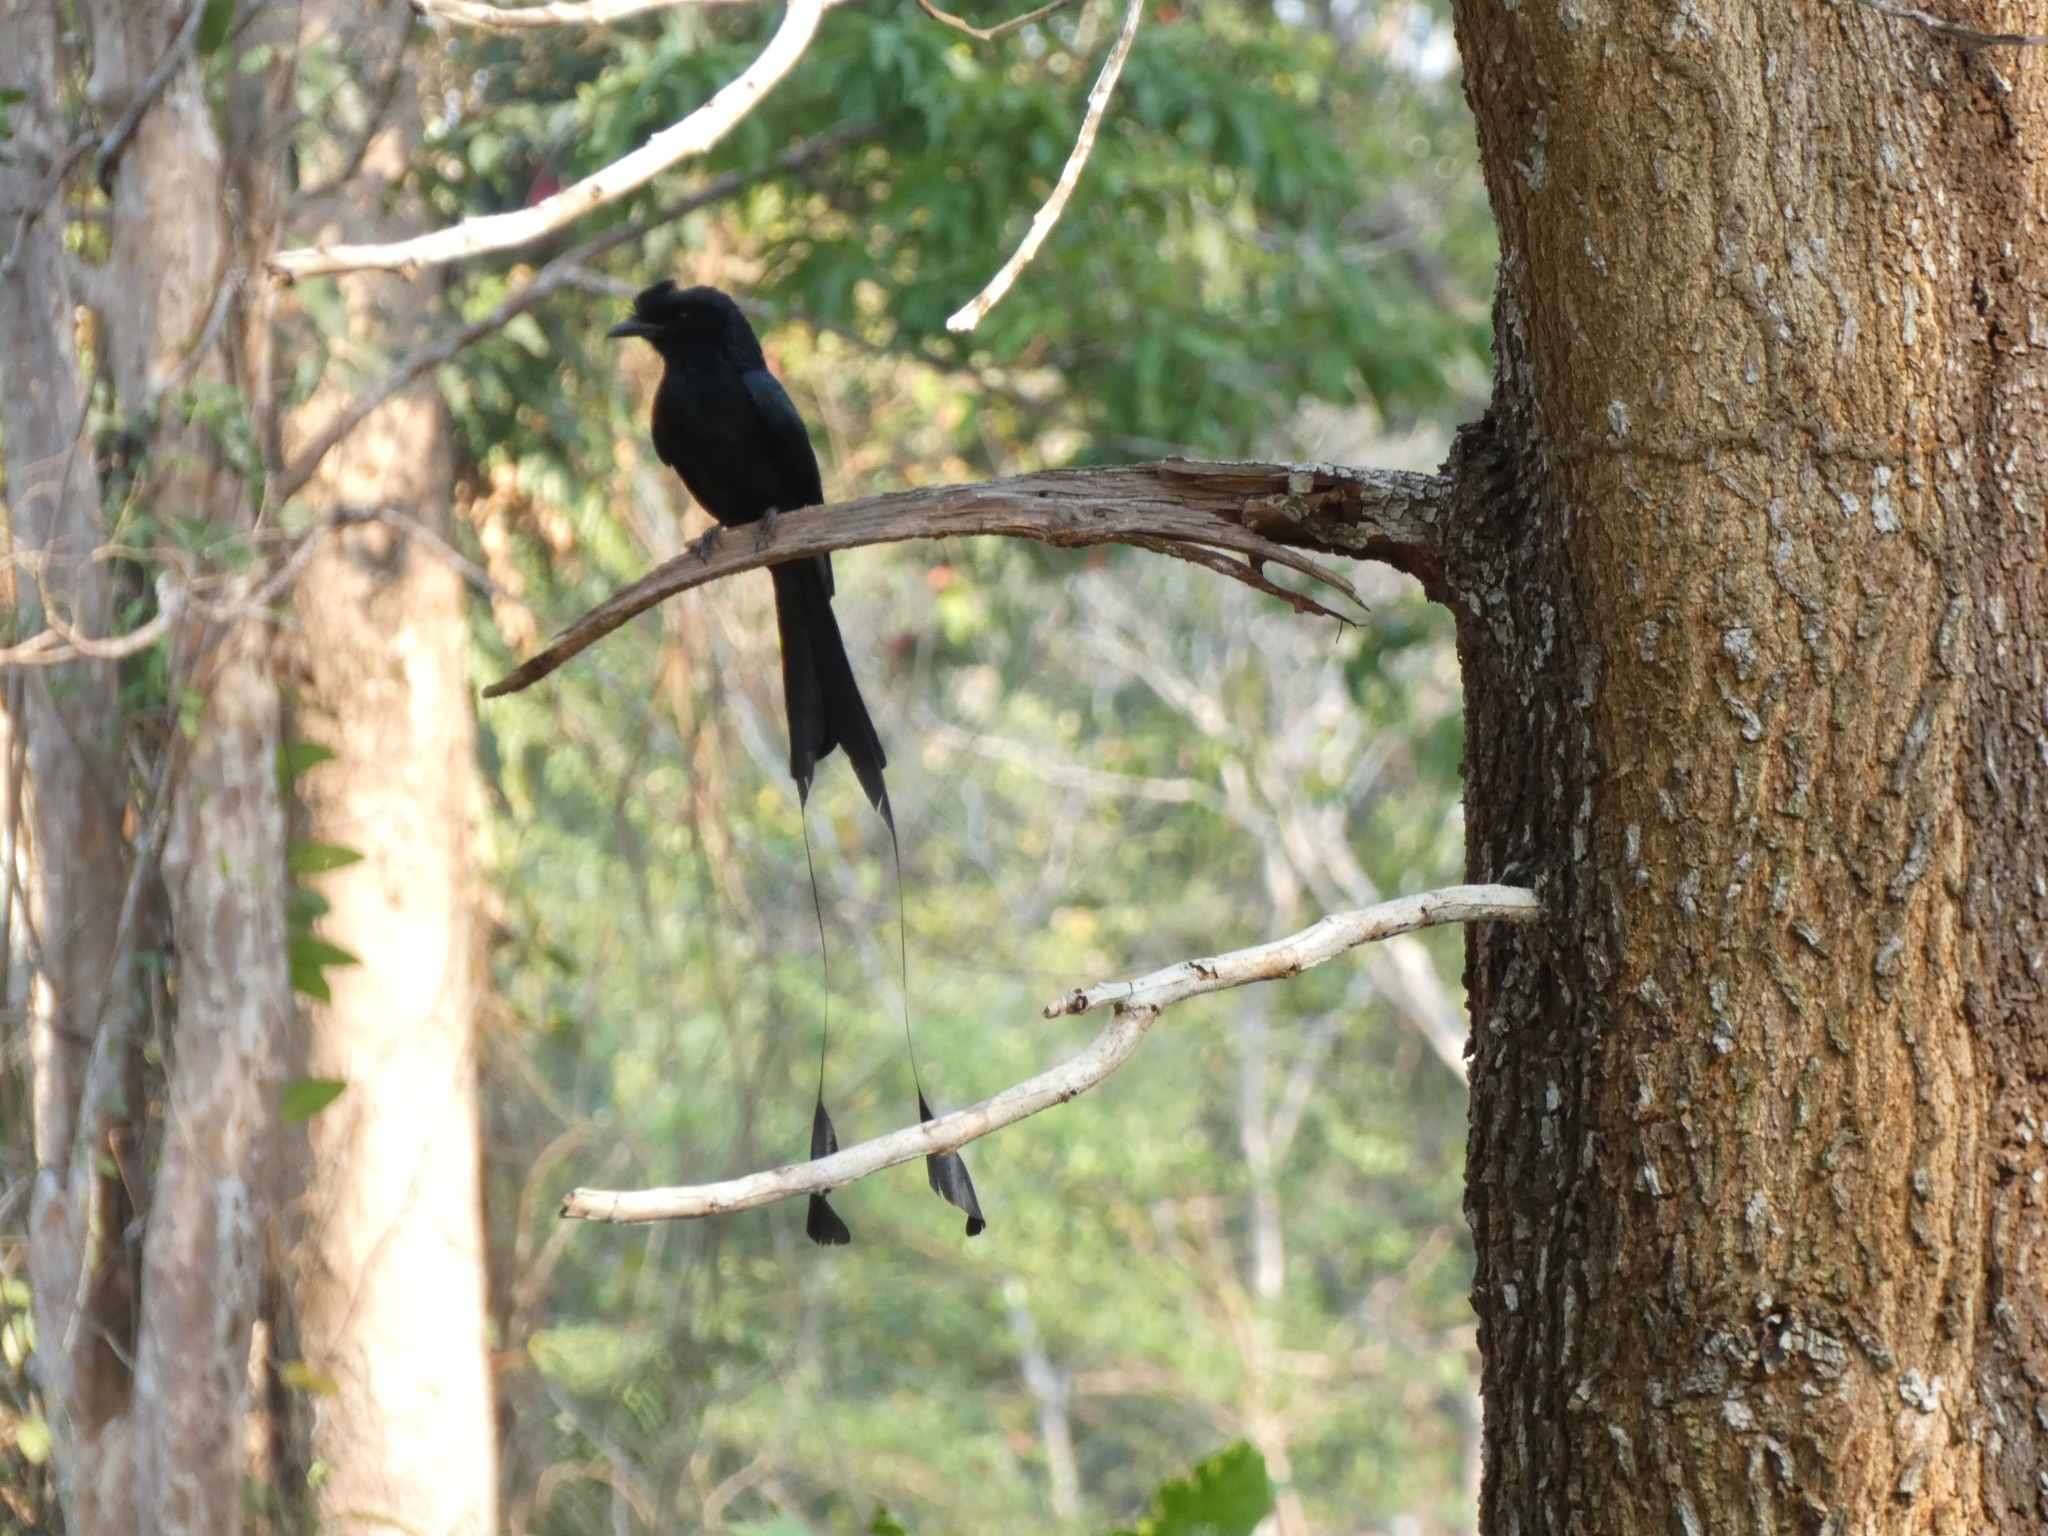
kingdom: Animalia
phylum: Chordata
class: Aves
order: Passeriformes
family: Dicruridae
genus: Dicrurus
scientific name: Dicrurus paradiseus
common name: Greater racket-tailed drongo
